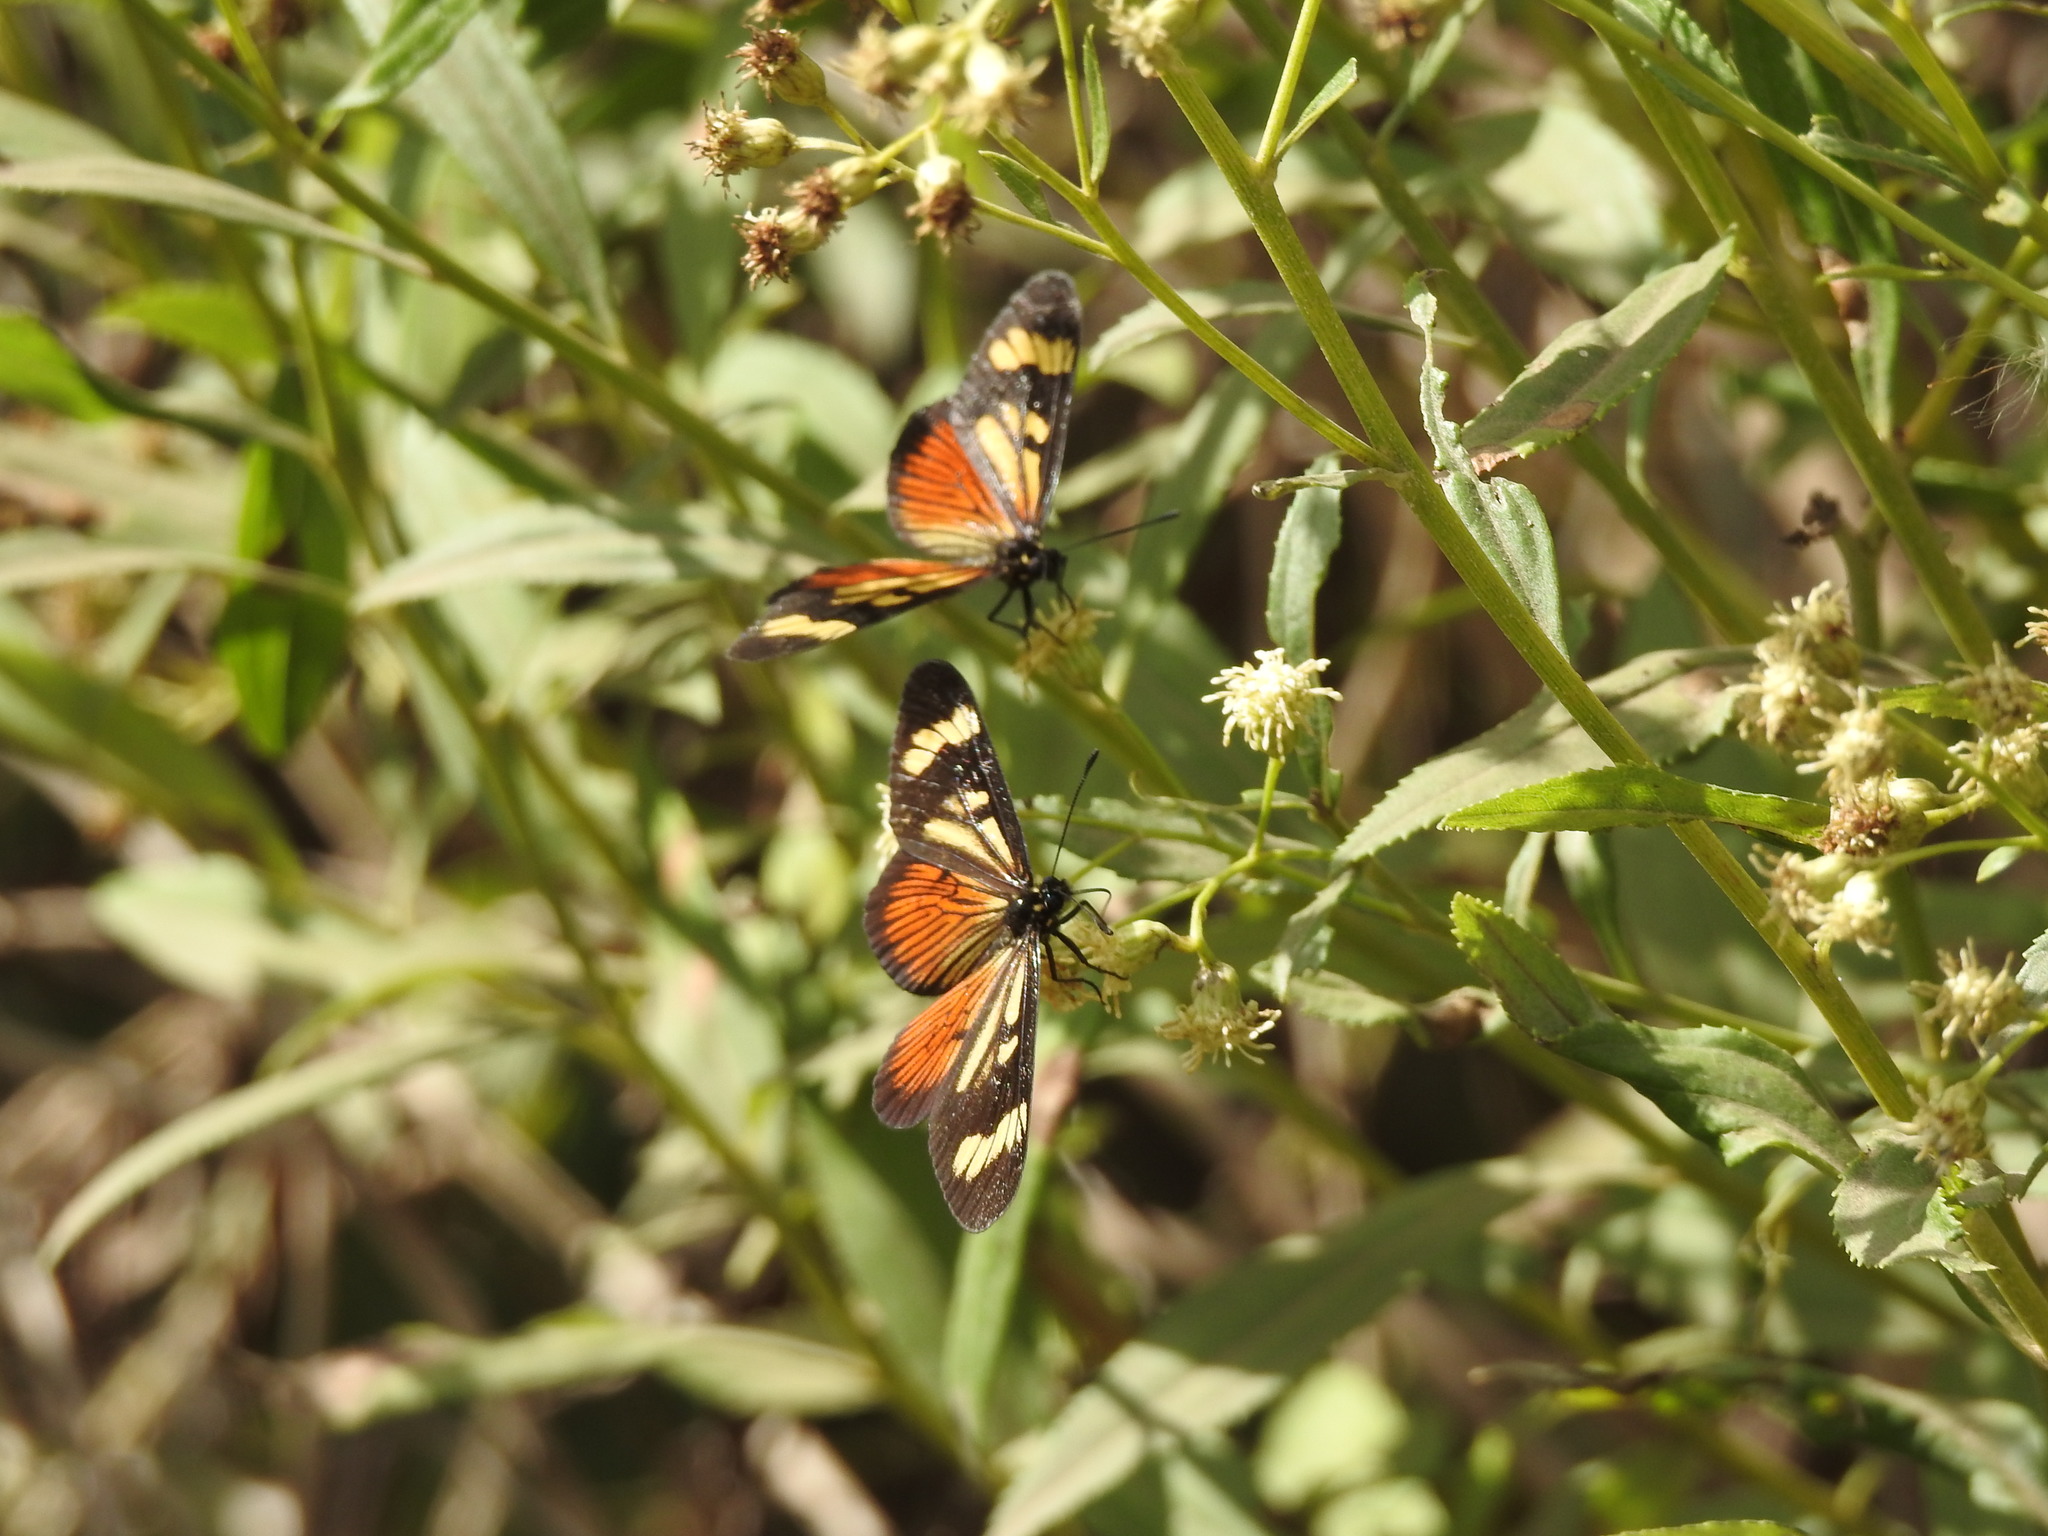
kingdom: Animalia
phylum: Arthropoda
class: Insecta
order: Lepidoptera
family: Nymphalidae
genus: Actinote
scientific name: Actinote pellenea
